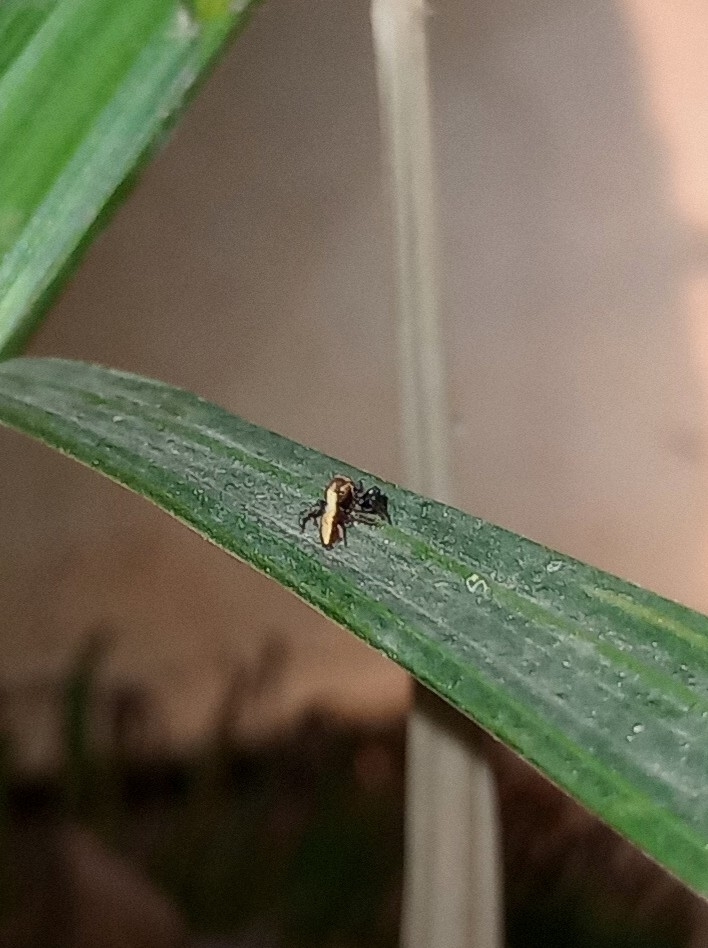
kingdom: Animalia
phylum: Arthropoda
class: Arachnida
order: Araneae
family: Salticidae
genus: Thyene
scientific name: Thyene bivittata
